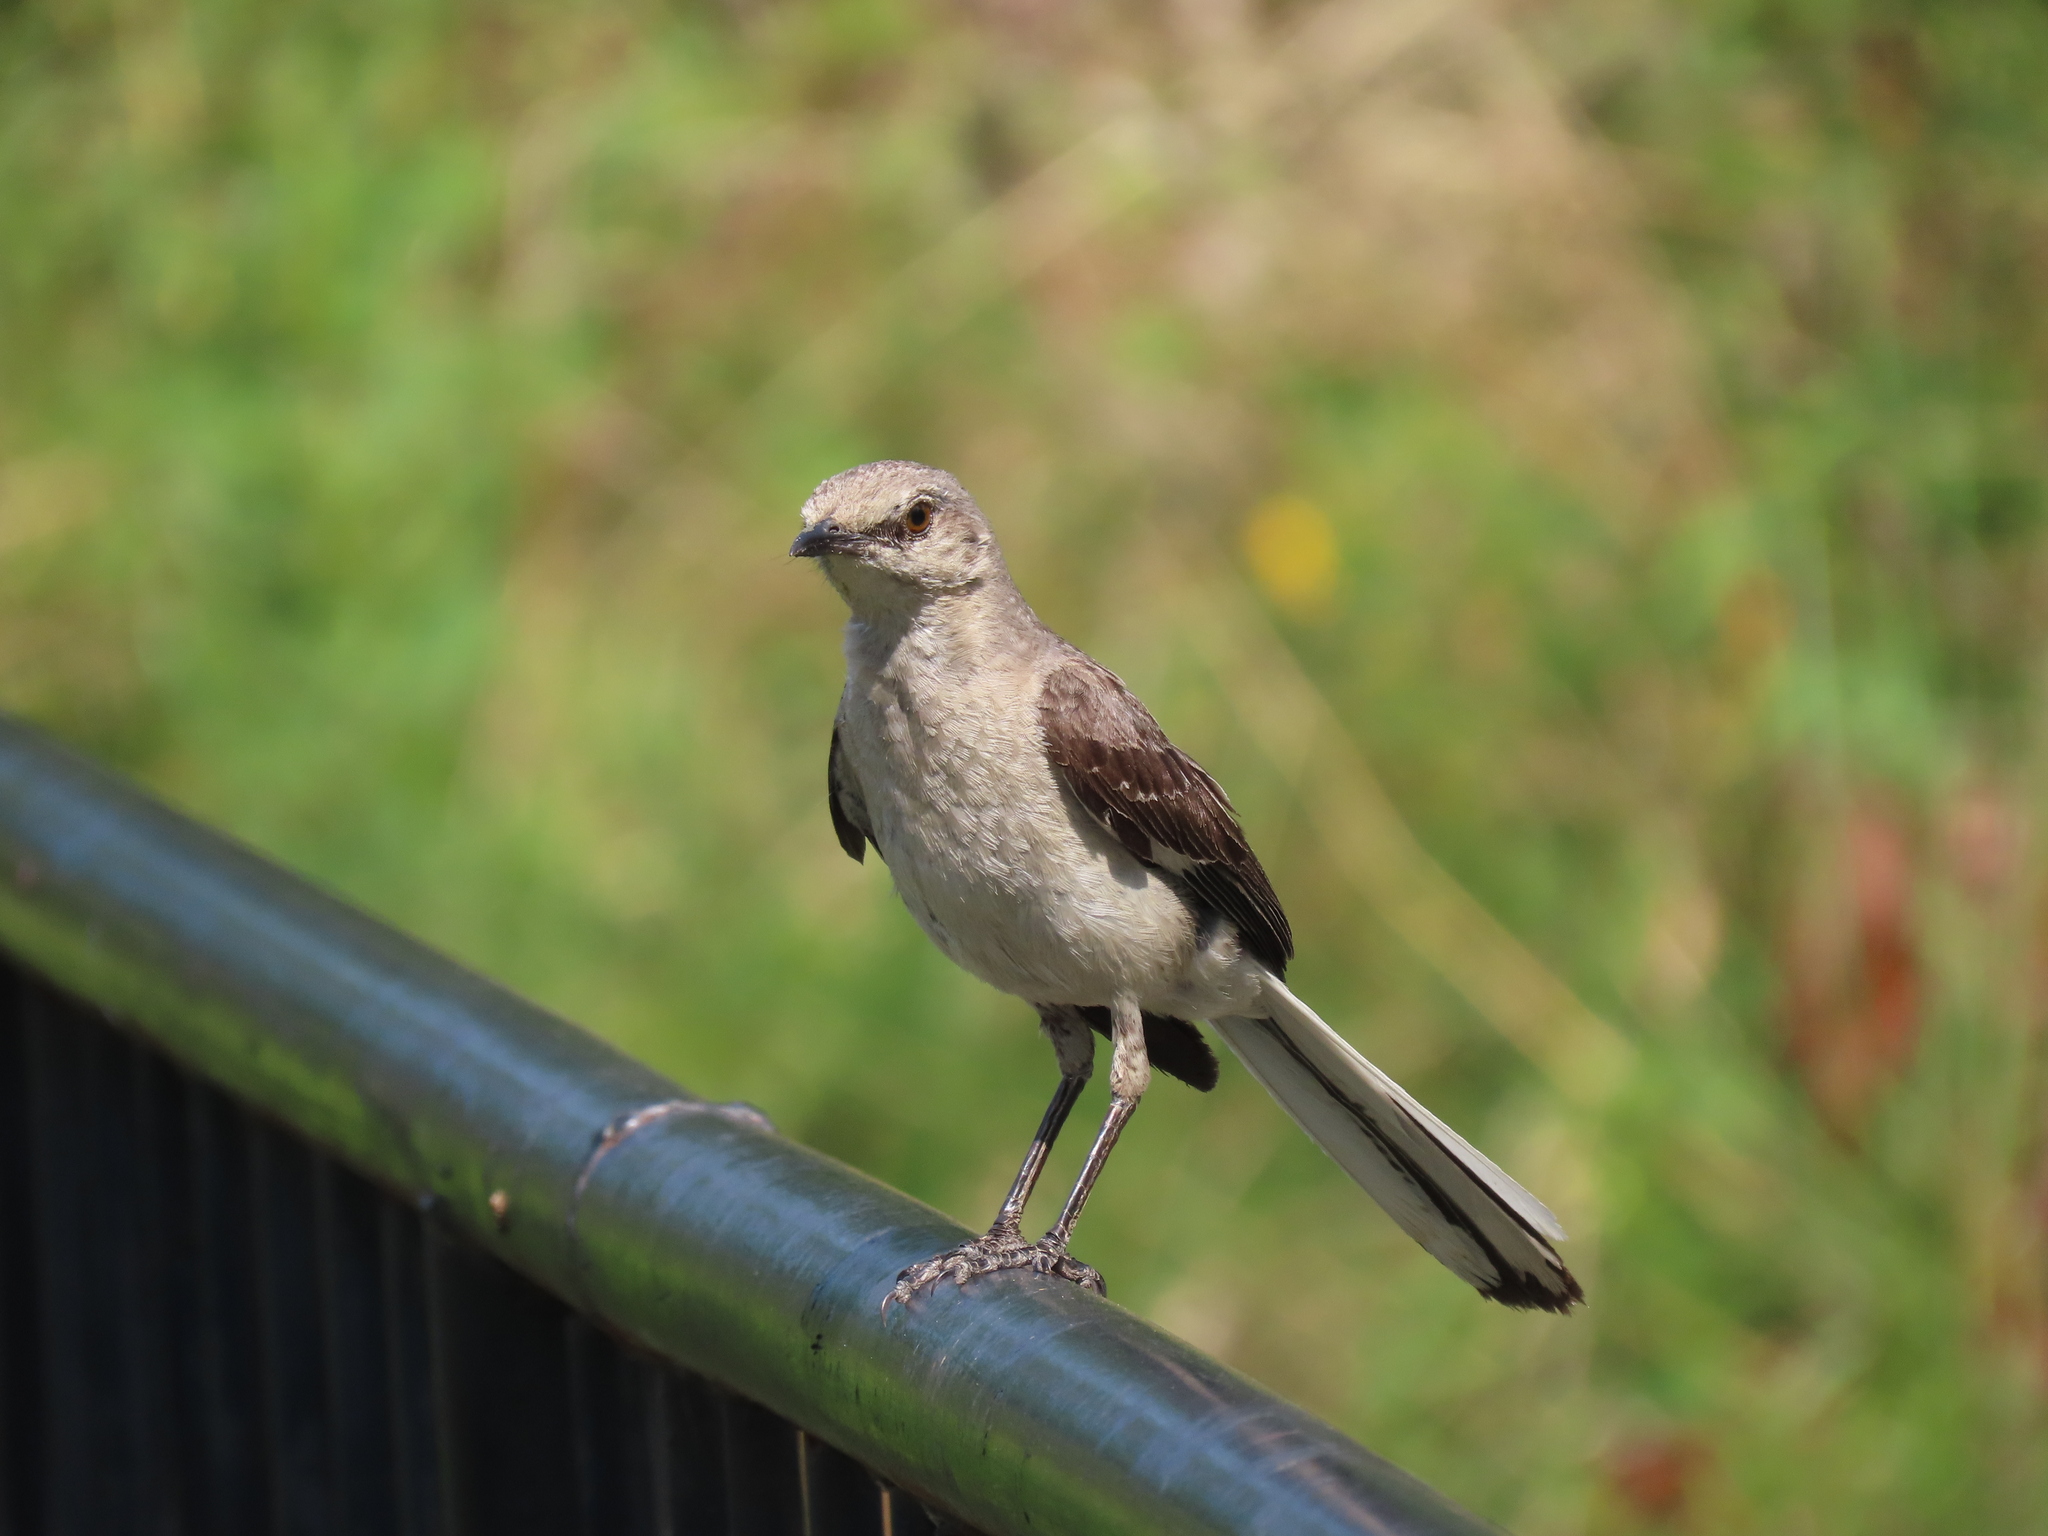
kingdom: Animalia
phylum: Chordata
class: Aves
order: Passeriformes
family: Mimidae
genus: Mimus
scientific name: Mimus polyglottos
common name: Northern mockingbird
